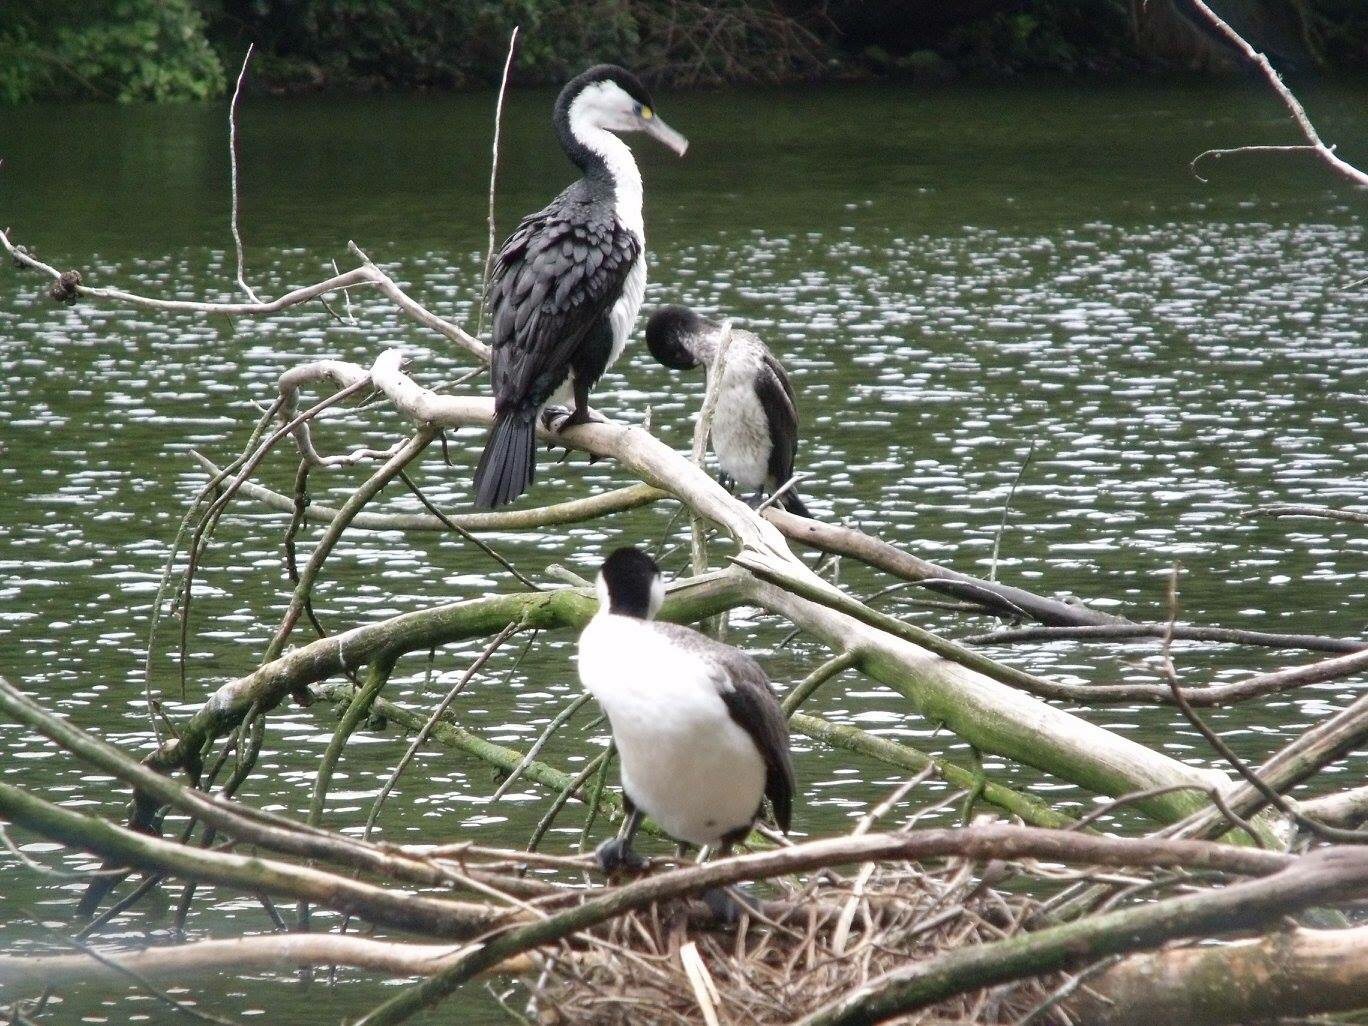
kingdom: Animalia
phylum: Chordata
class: Aves
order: Suliformes
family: Phalacrocoracidae
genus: Phalacrocorax
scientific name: Phalacrocorax varius
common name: Pied cormorant
